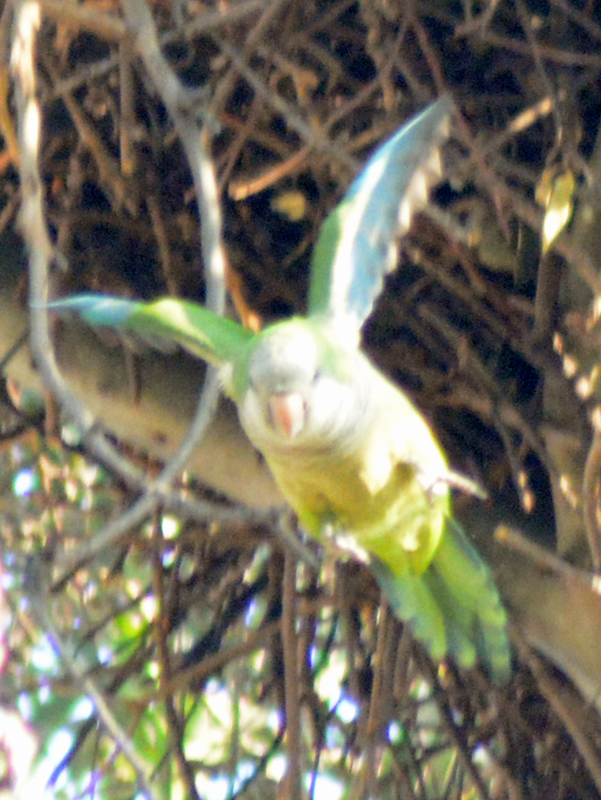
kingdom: Animalia
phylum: Chordata
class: Aves
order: Psittaciformes
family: Psittacidae
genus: Myiopsitta
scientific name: Myiopsitta monachus
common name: Monk parakeet
